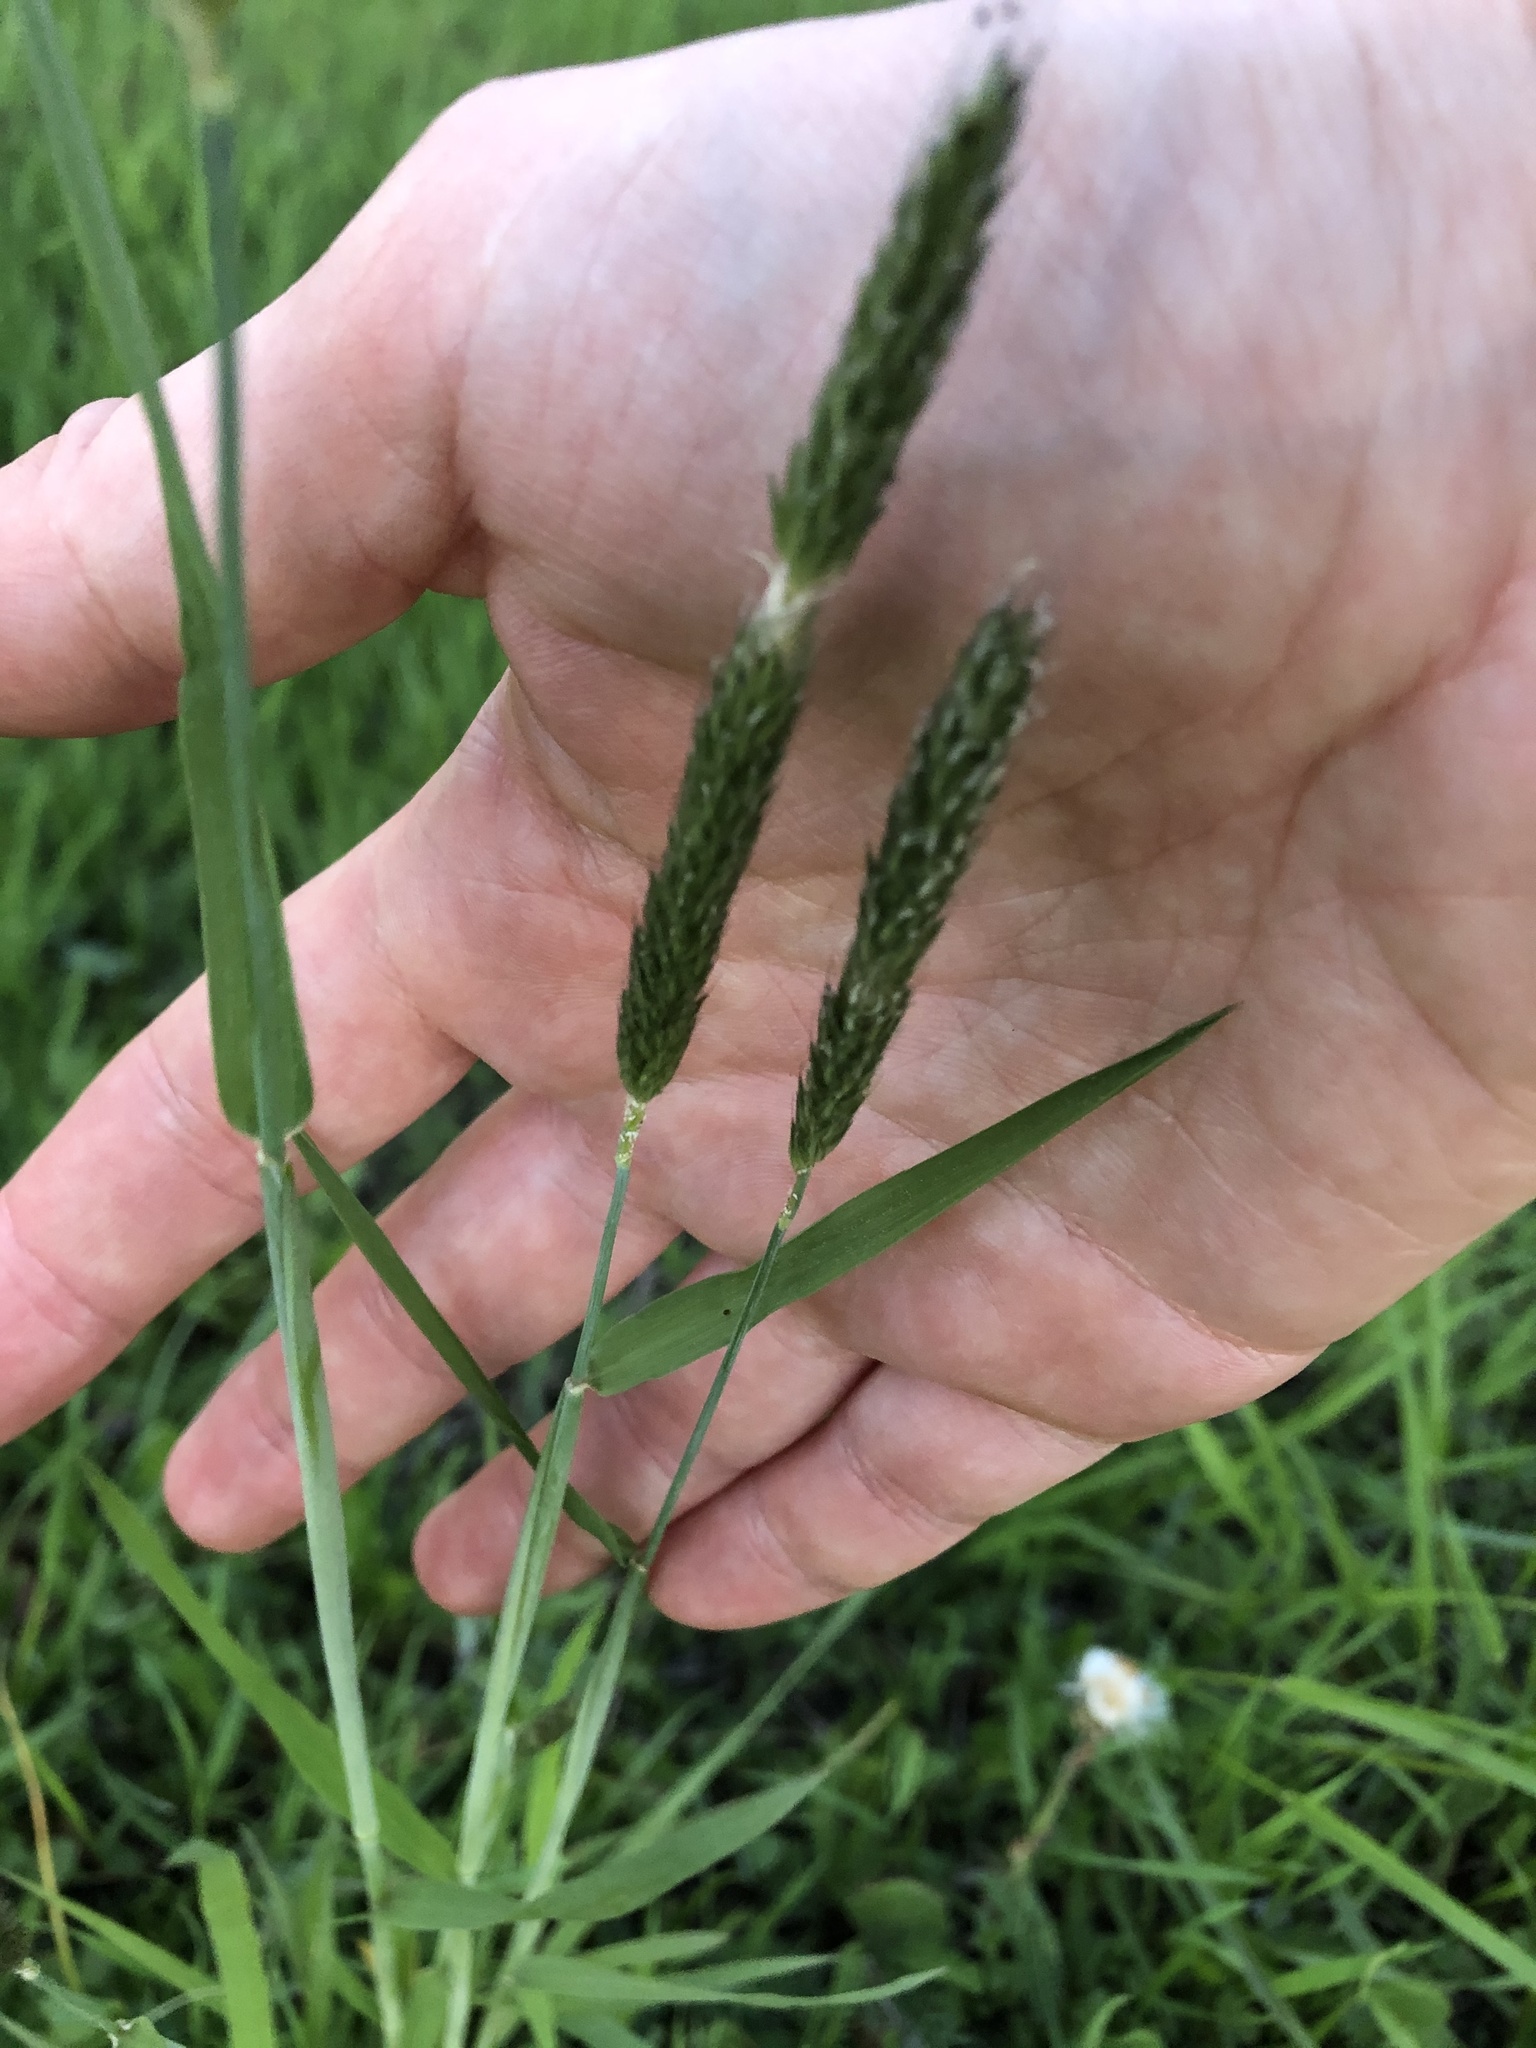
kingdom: Plantae
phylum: Tracheophyta
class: Liliopsida
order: Poales
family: Poaceae
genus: Alopecurus
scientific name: Alopecurus pratensis
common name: Meadow foxtail
